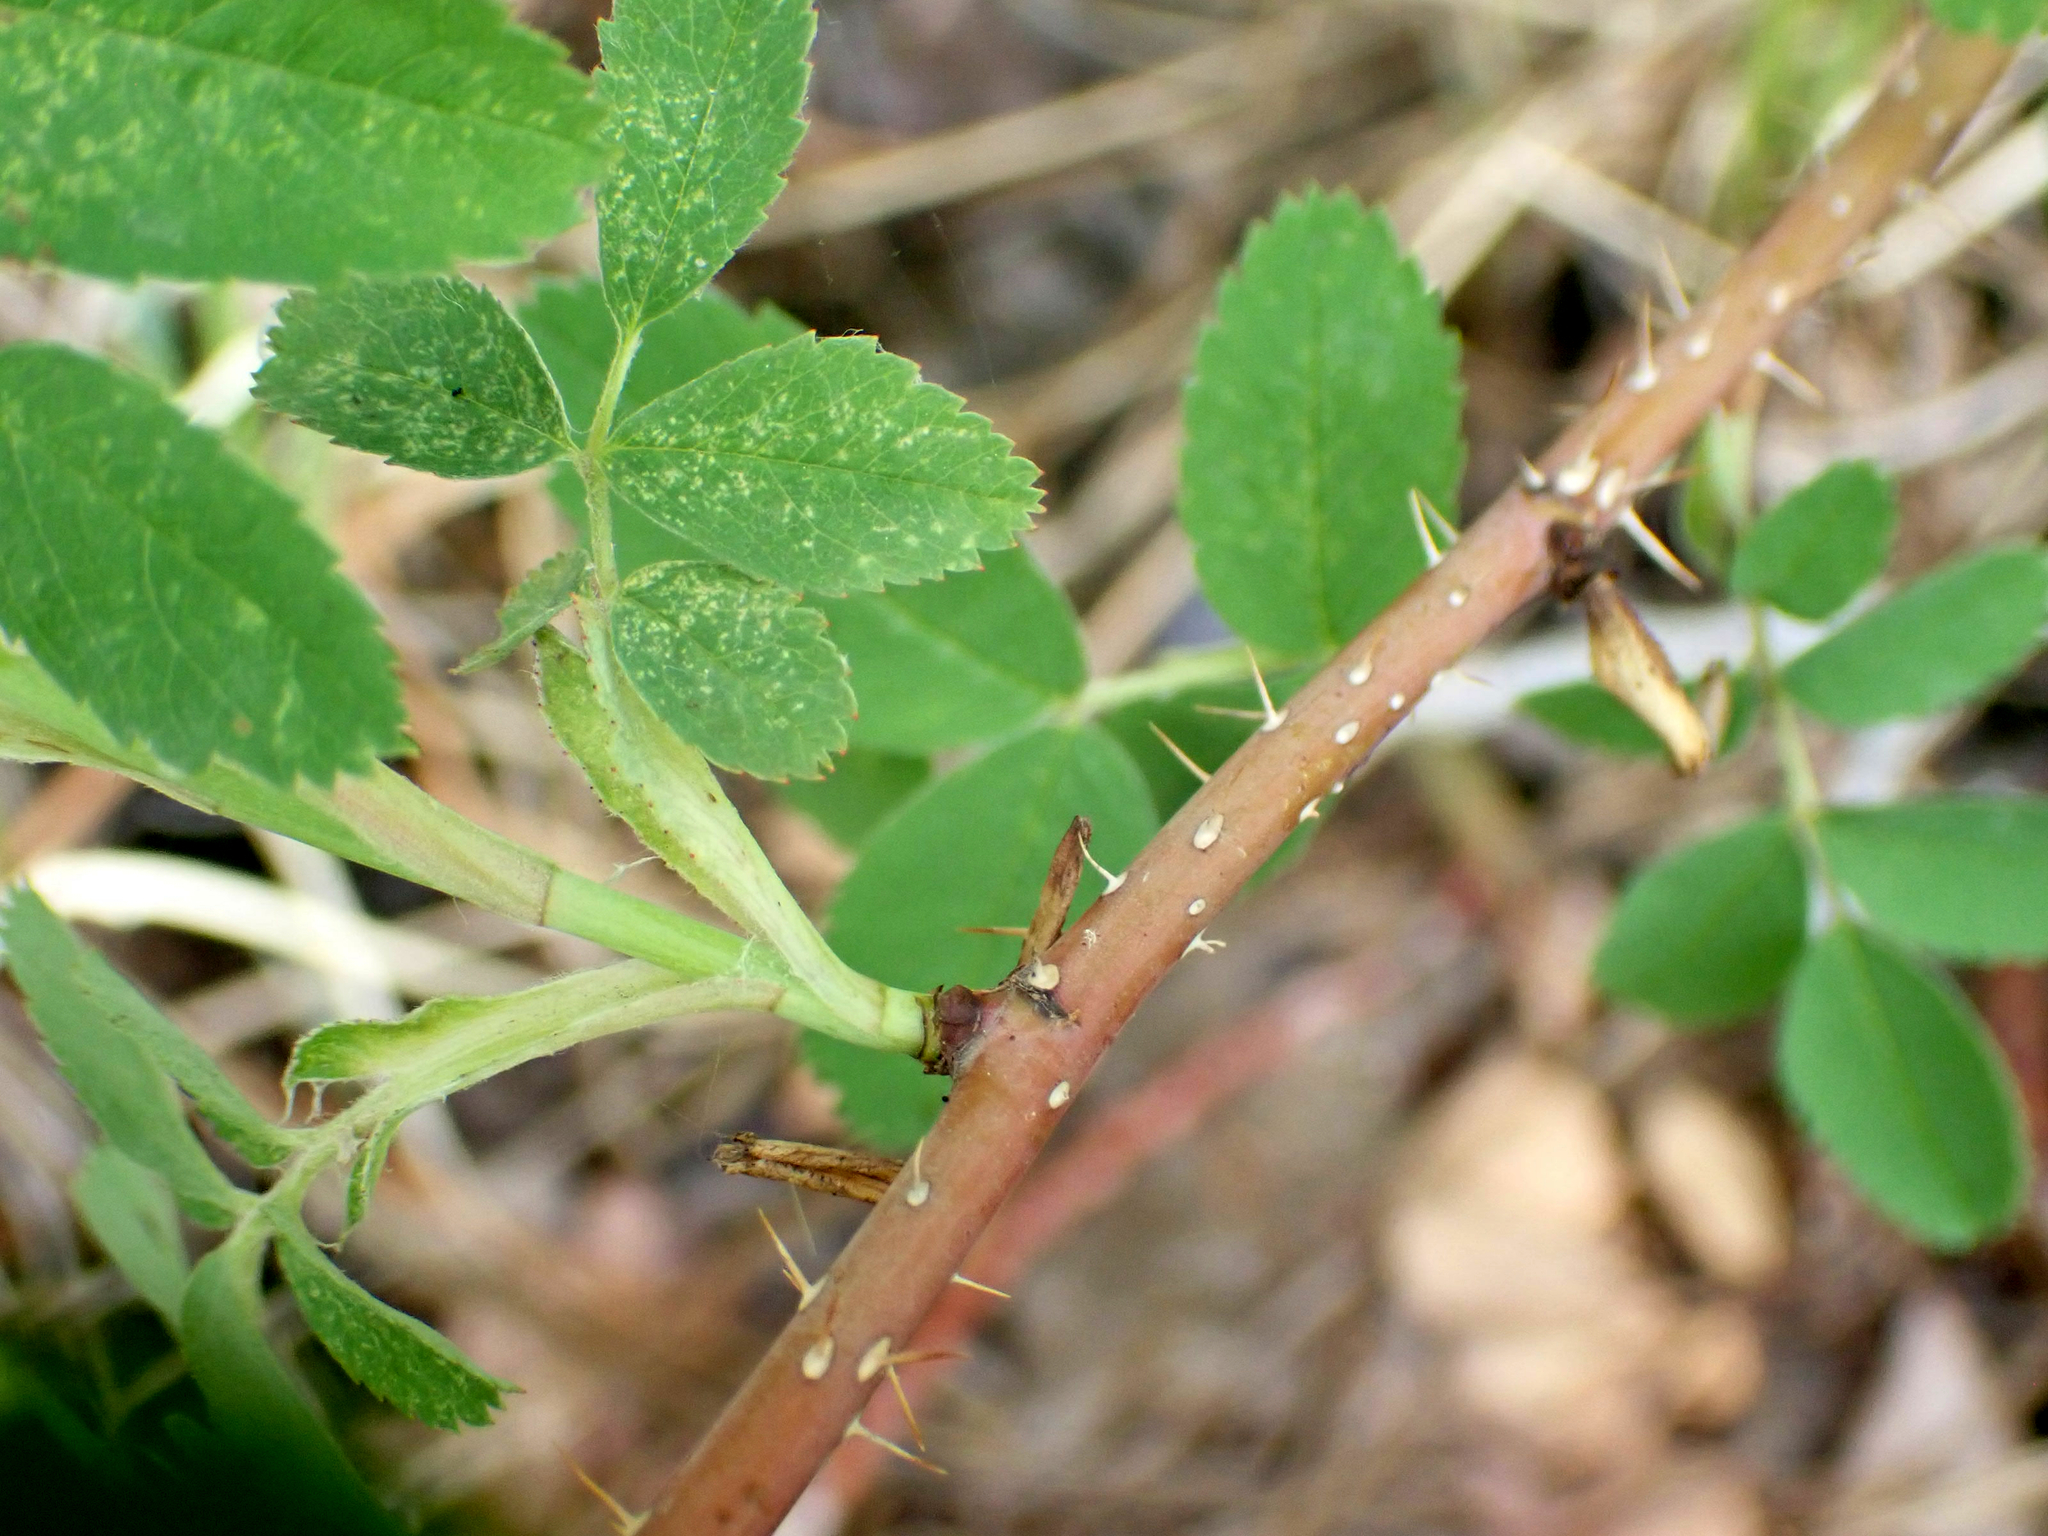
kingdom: Plantae
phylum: Tracheophyta
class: Magnoliopsida
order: Rosales
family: Rosaceae
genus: Rosa
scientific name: Rosa woodsii
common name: Woods's rose
